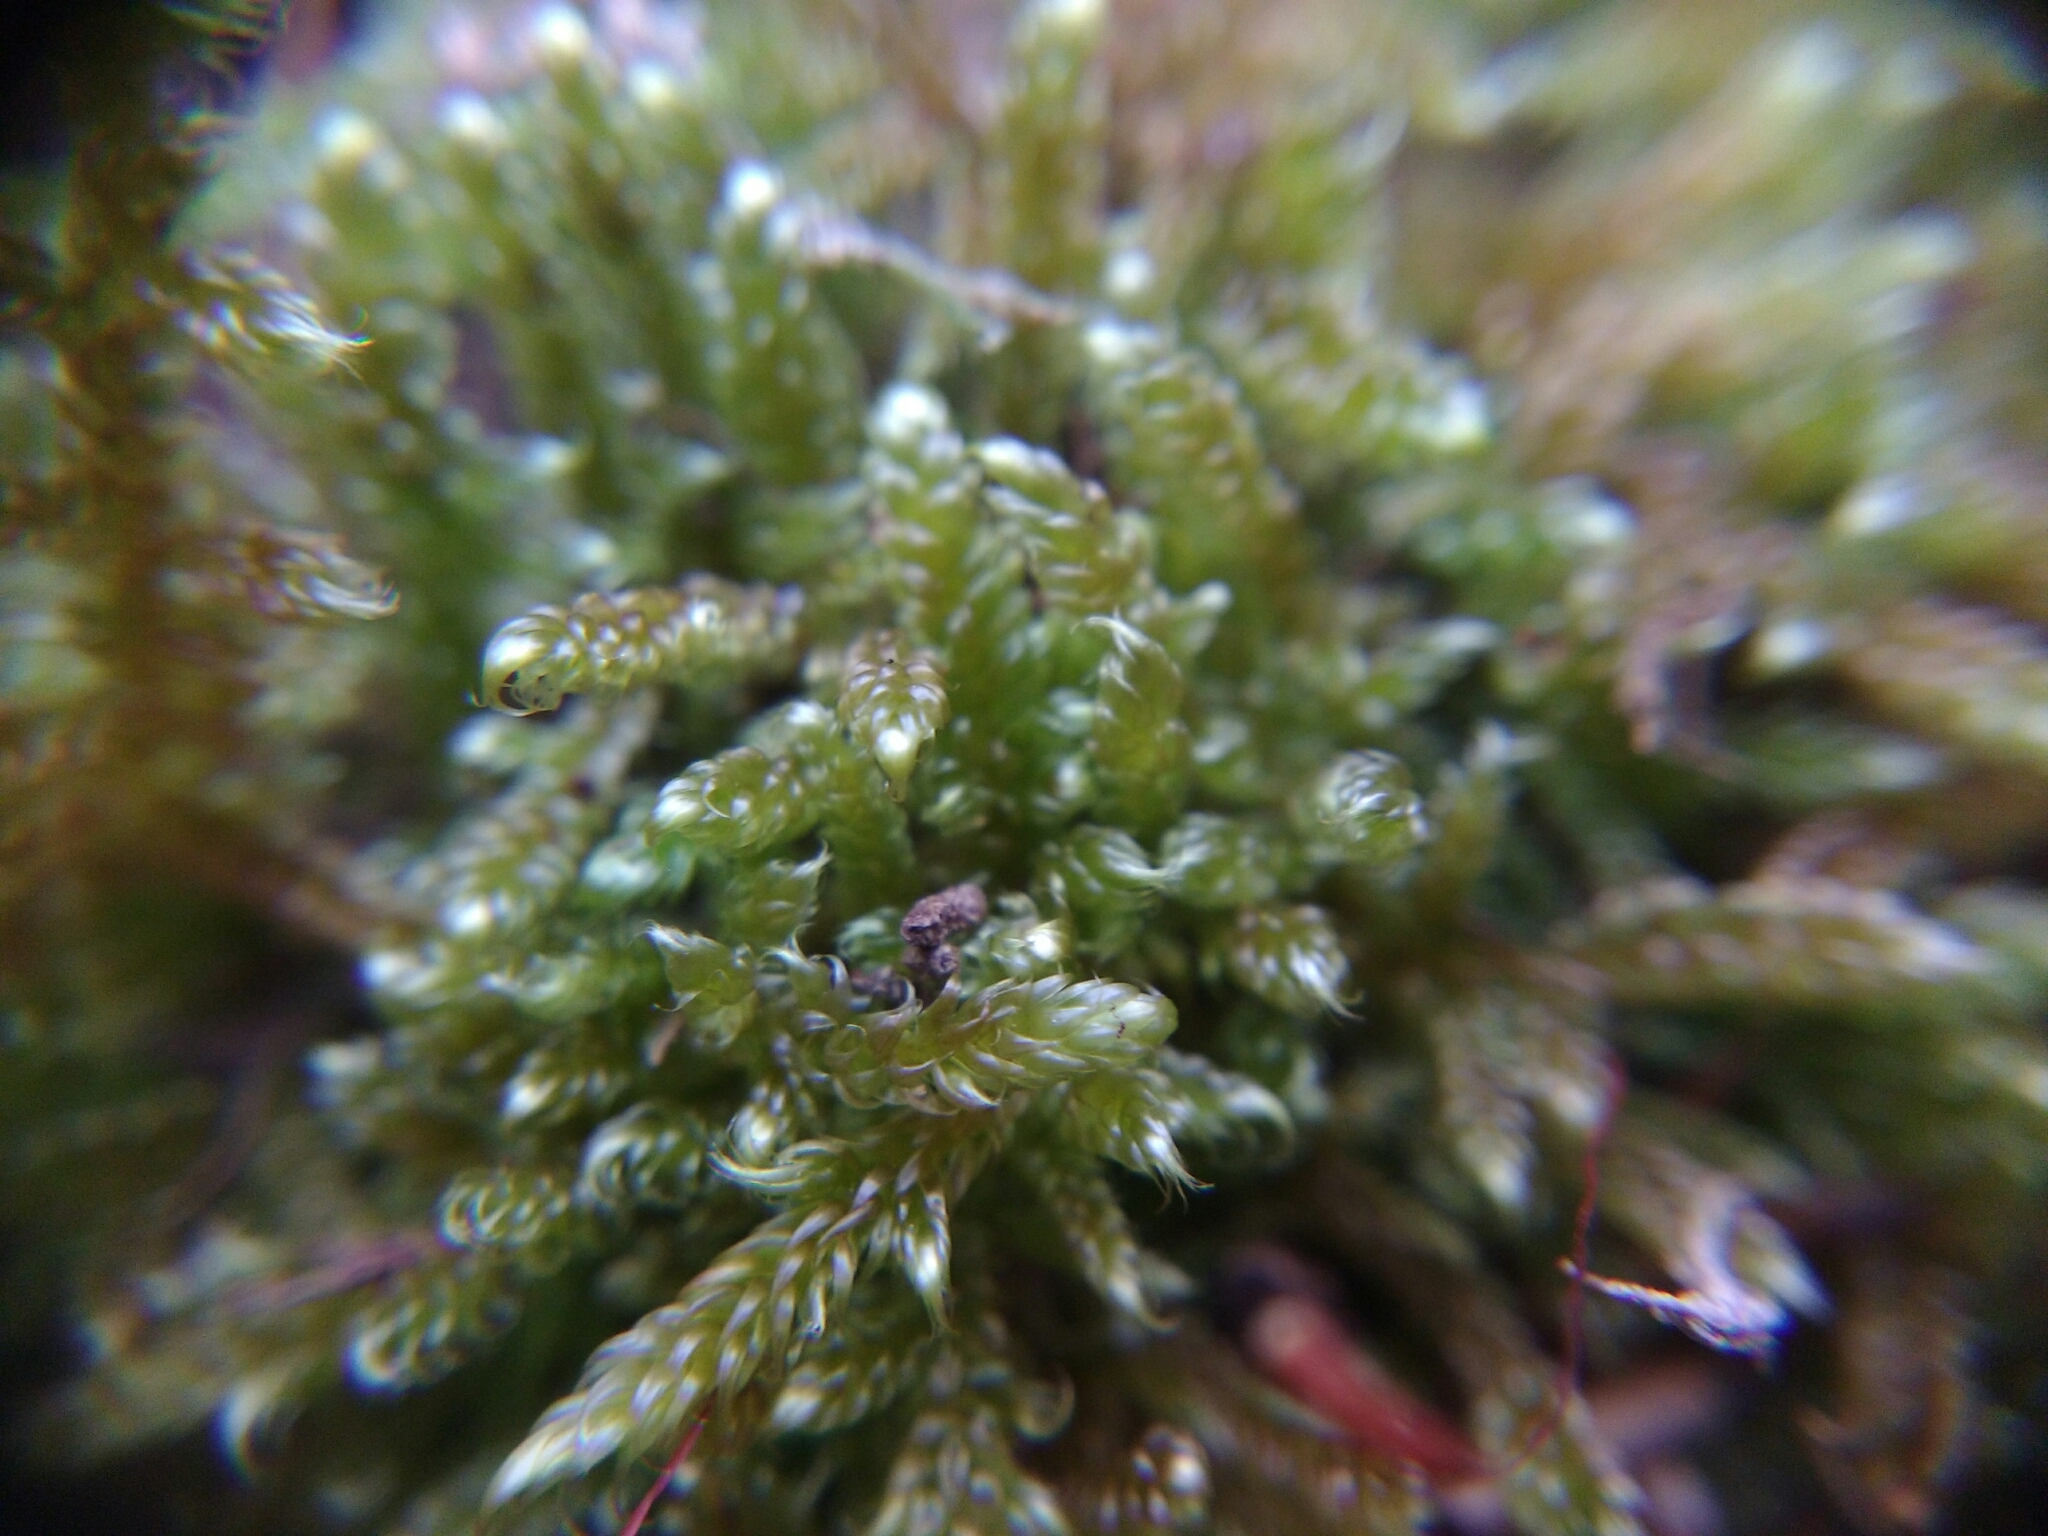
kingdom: Plantae
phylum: Bryophyta
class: Bryopsida
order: Hypnales
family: Hypnaceae
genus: Hypnum
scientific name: Hypnum cupressiforme
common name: Cypress-leaved plait-moss
